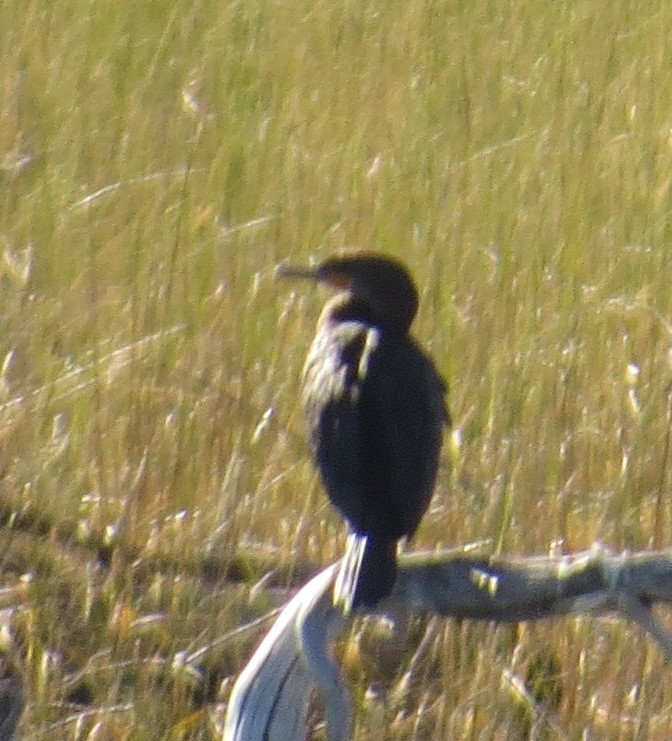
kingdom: Animalia
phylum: Chordata
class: Aves
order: Suliformes
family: Phalacrocoracidae
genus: Phalacrocorax
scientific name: Phalacrocorax auritus
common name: Double-crested cormorant
